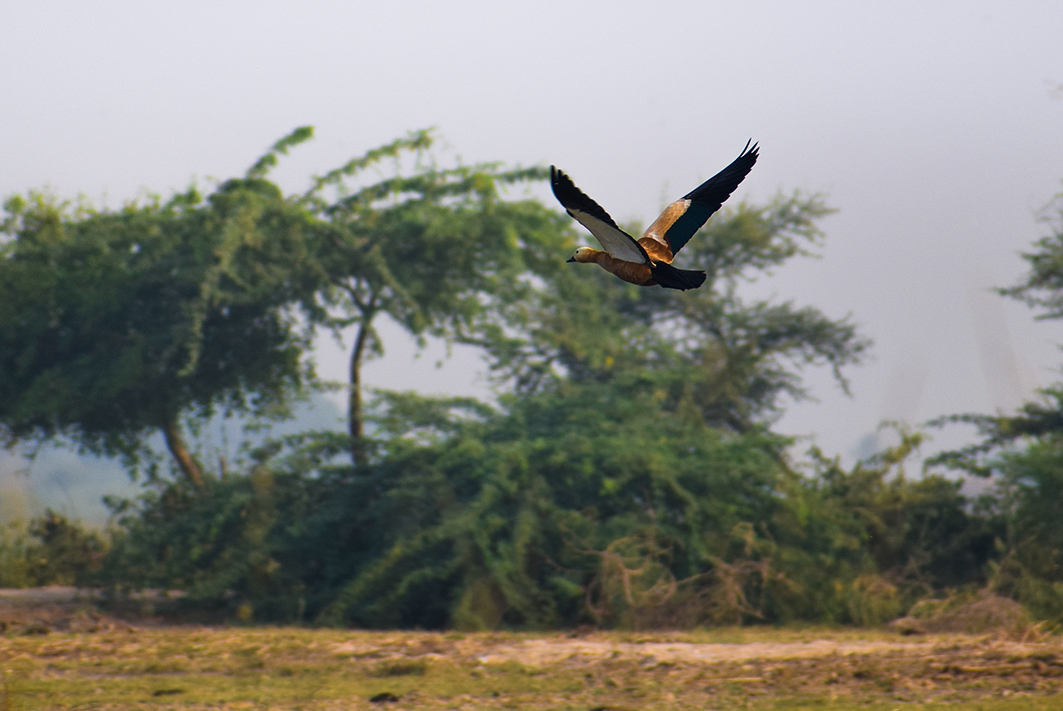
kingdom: Animalia
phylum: Chordata
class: Aves
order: Anseriformes
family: Anatidae
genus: Tadorna
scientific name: Tadorna ferruginea
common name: Ruddy shelduck
